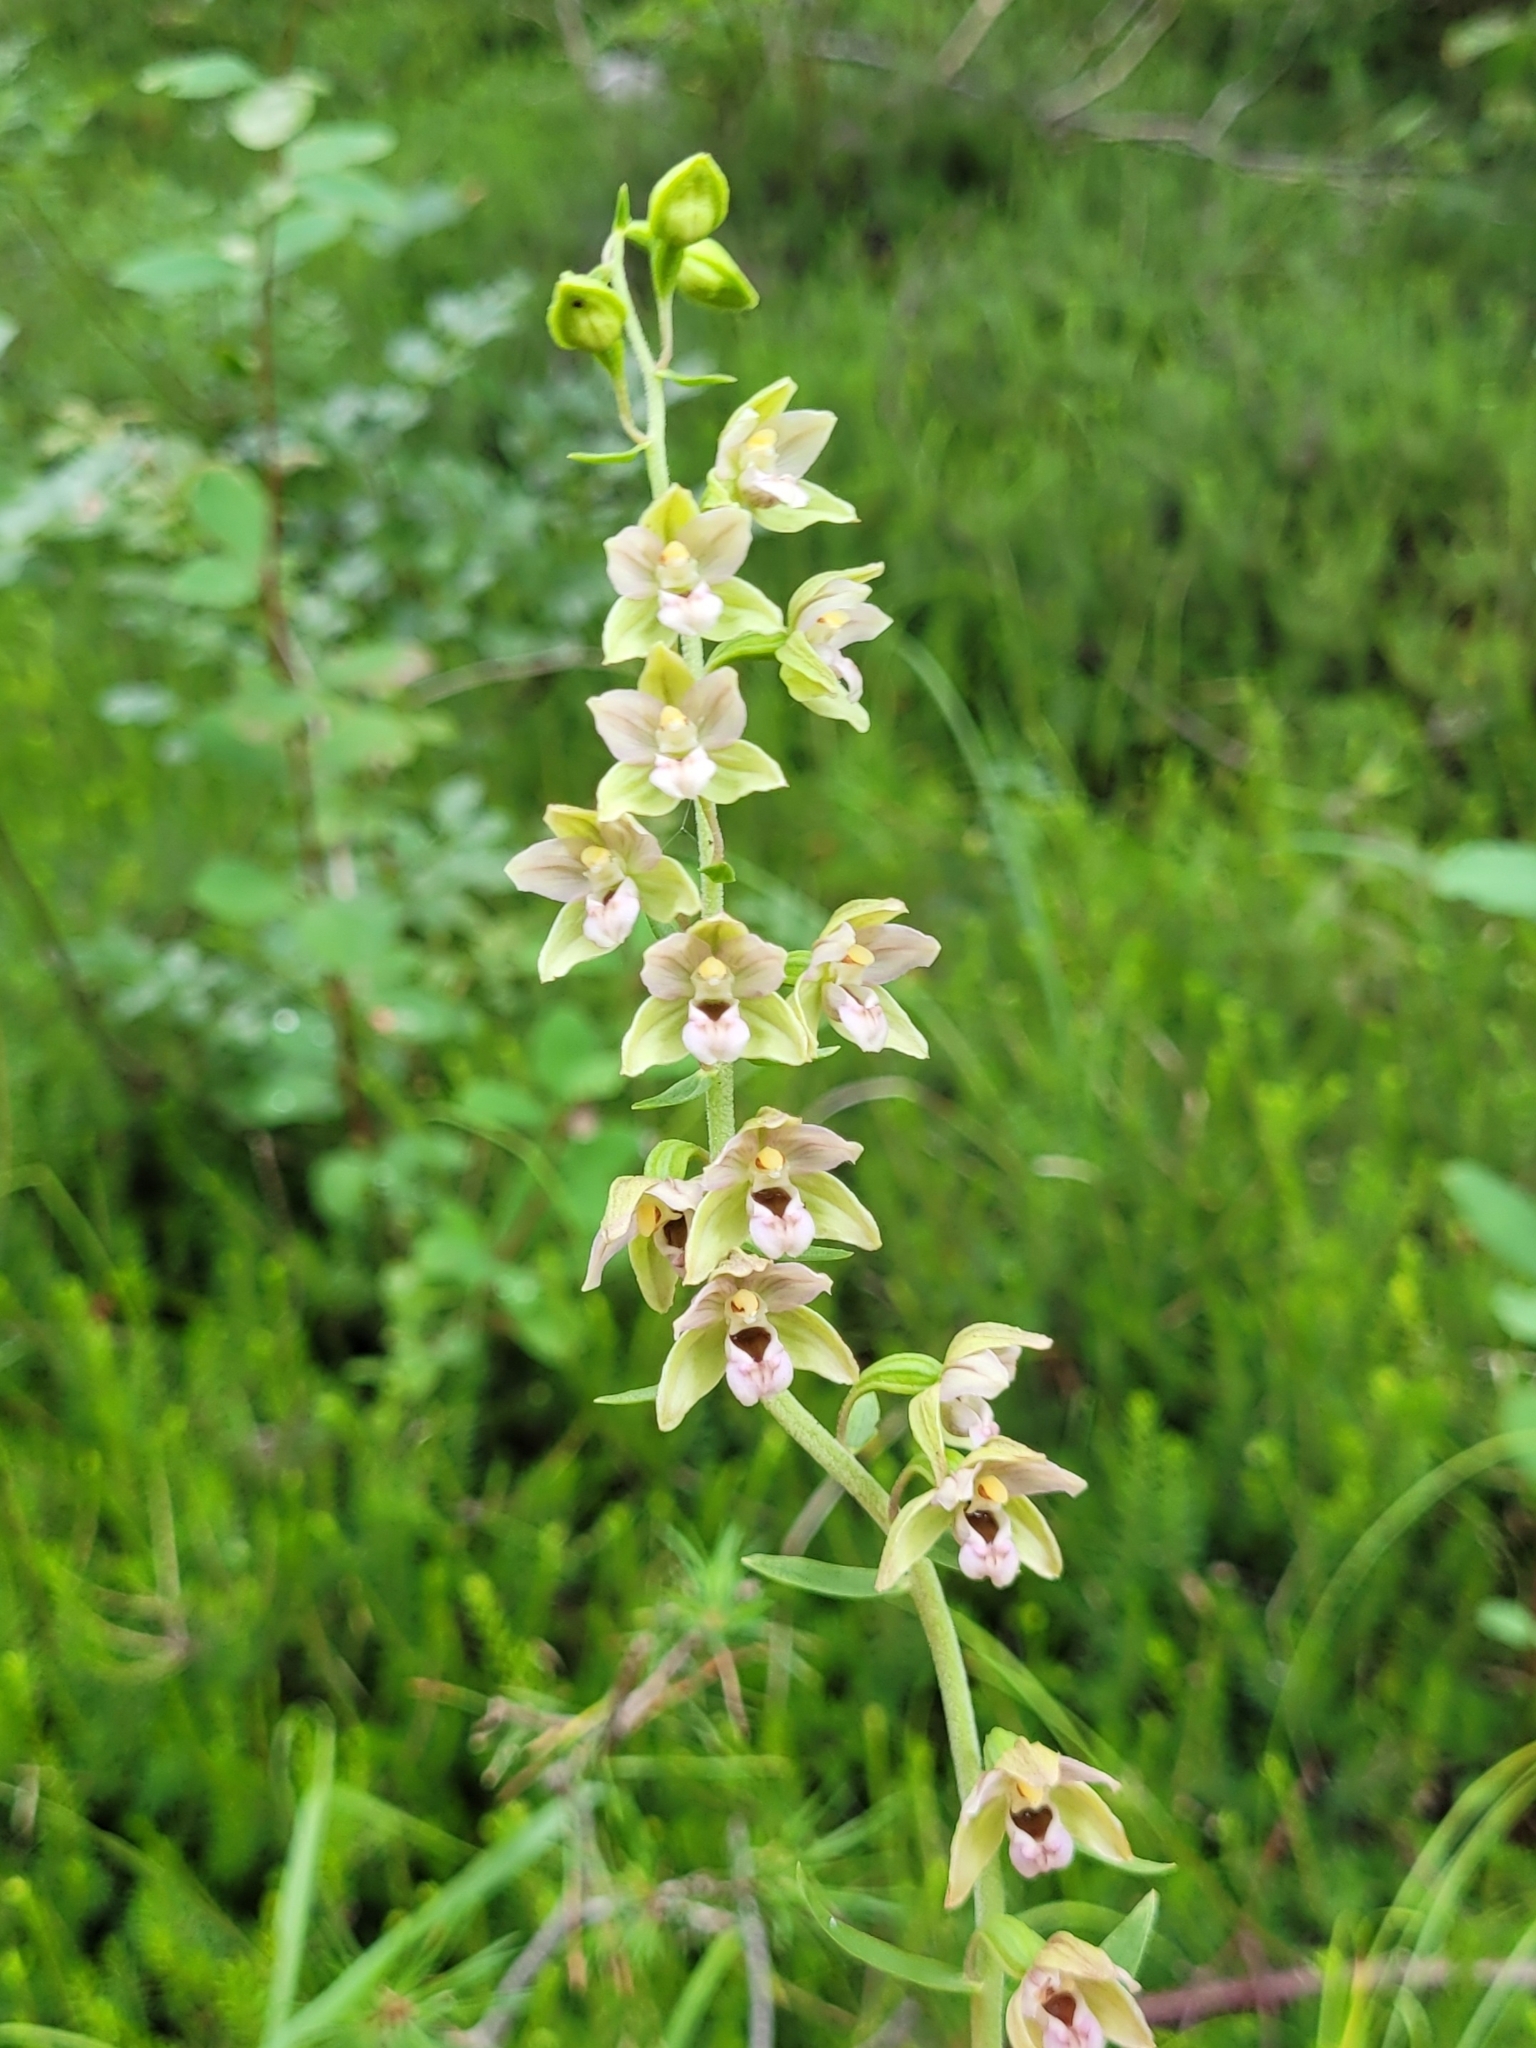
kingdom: Plantae
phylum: Tracheophyta
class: Liliopsida
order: Asparagales
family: Orchidaceae
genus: Epipactis
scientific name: Epipactis helleborine
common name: Broad-leaved helleborine
